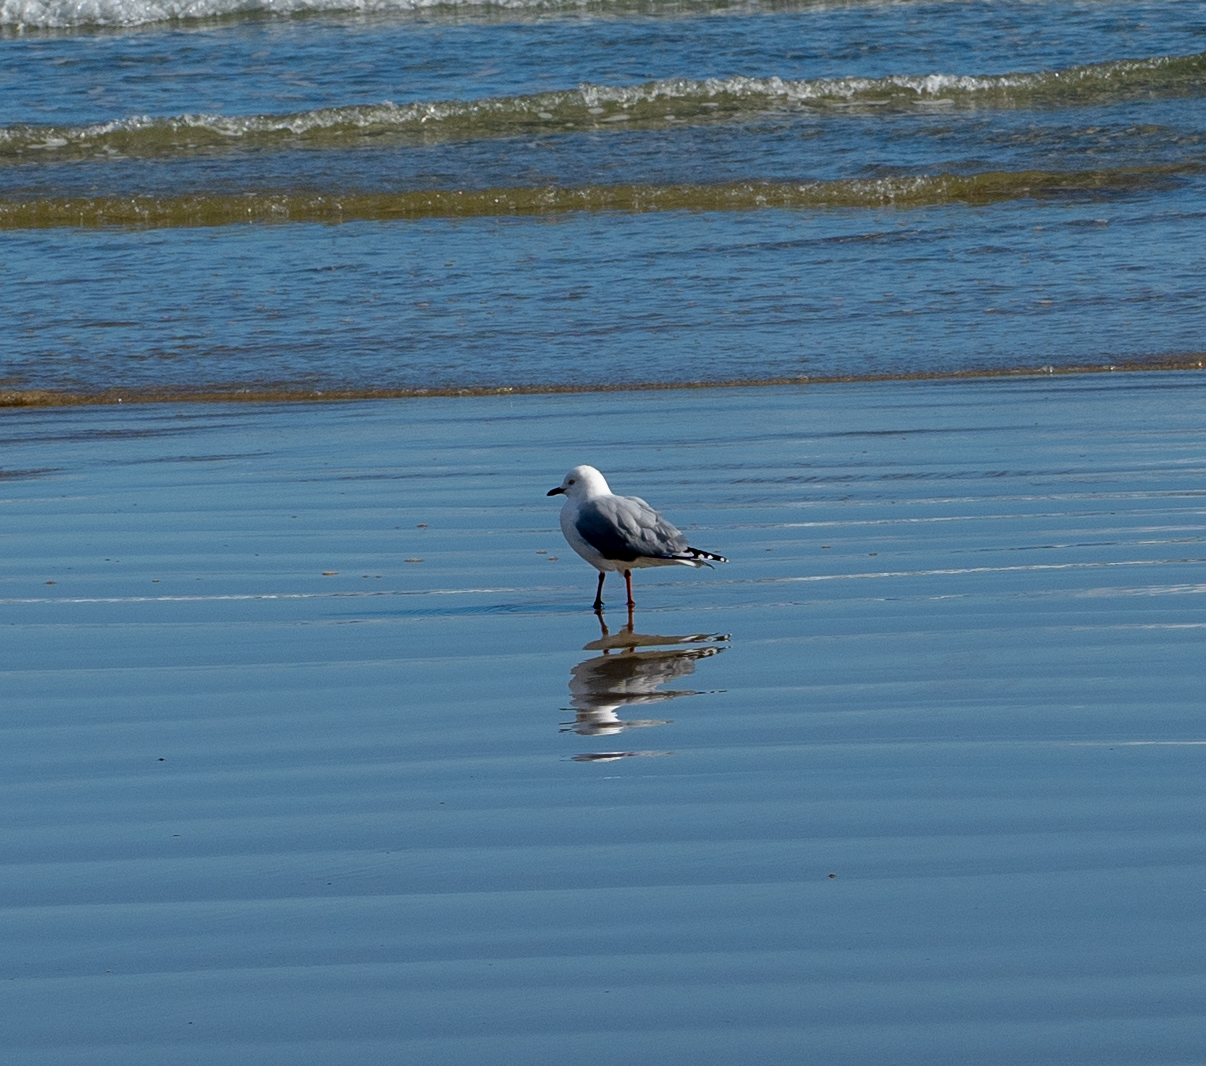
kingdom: Animalia
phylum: Chordata
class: Aves
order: Charadriiformes
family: Laridae
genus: Chroicocephalus
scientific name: Chroicocephalus novaehollandiae
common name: Silver gull
